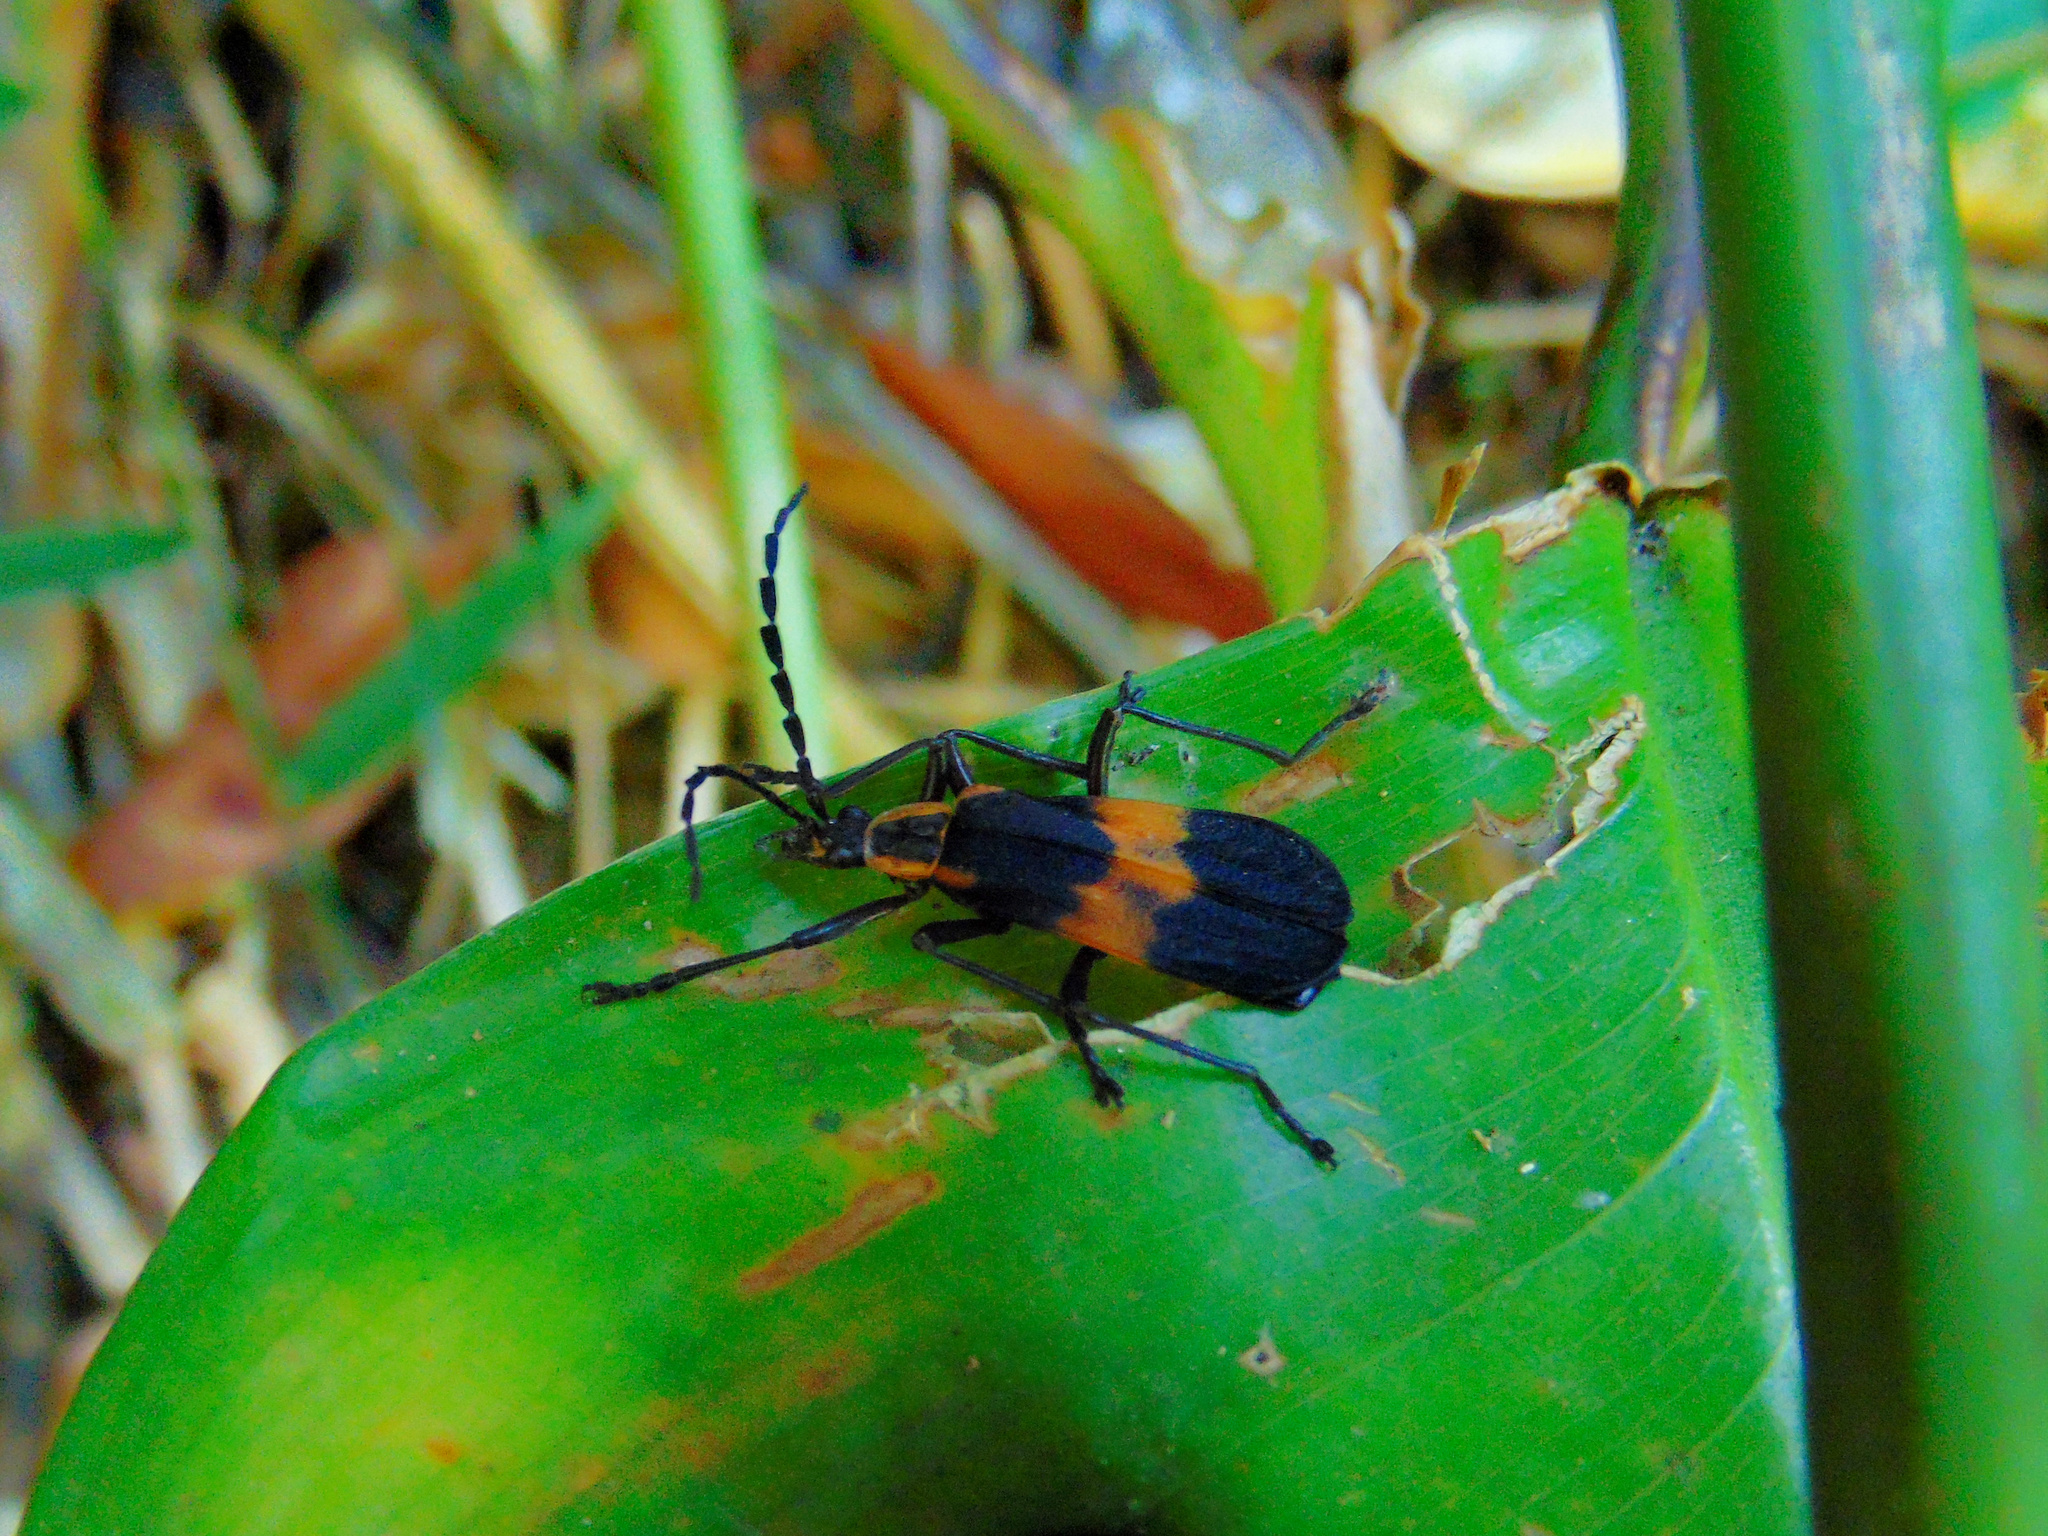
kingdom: Animalia
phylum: Arthropoda
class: Insecta
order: Coleoptera
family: Cantharidae
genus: Daiphron
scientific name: Daiphron
